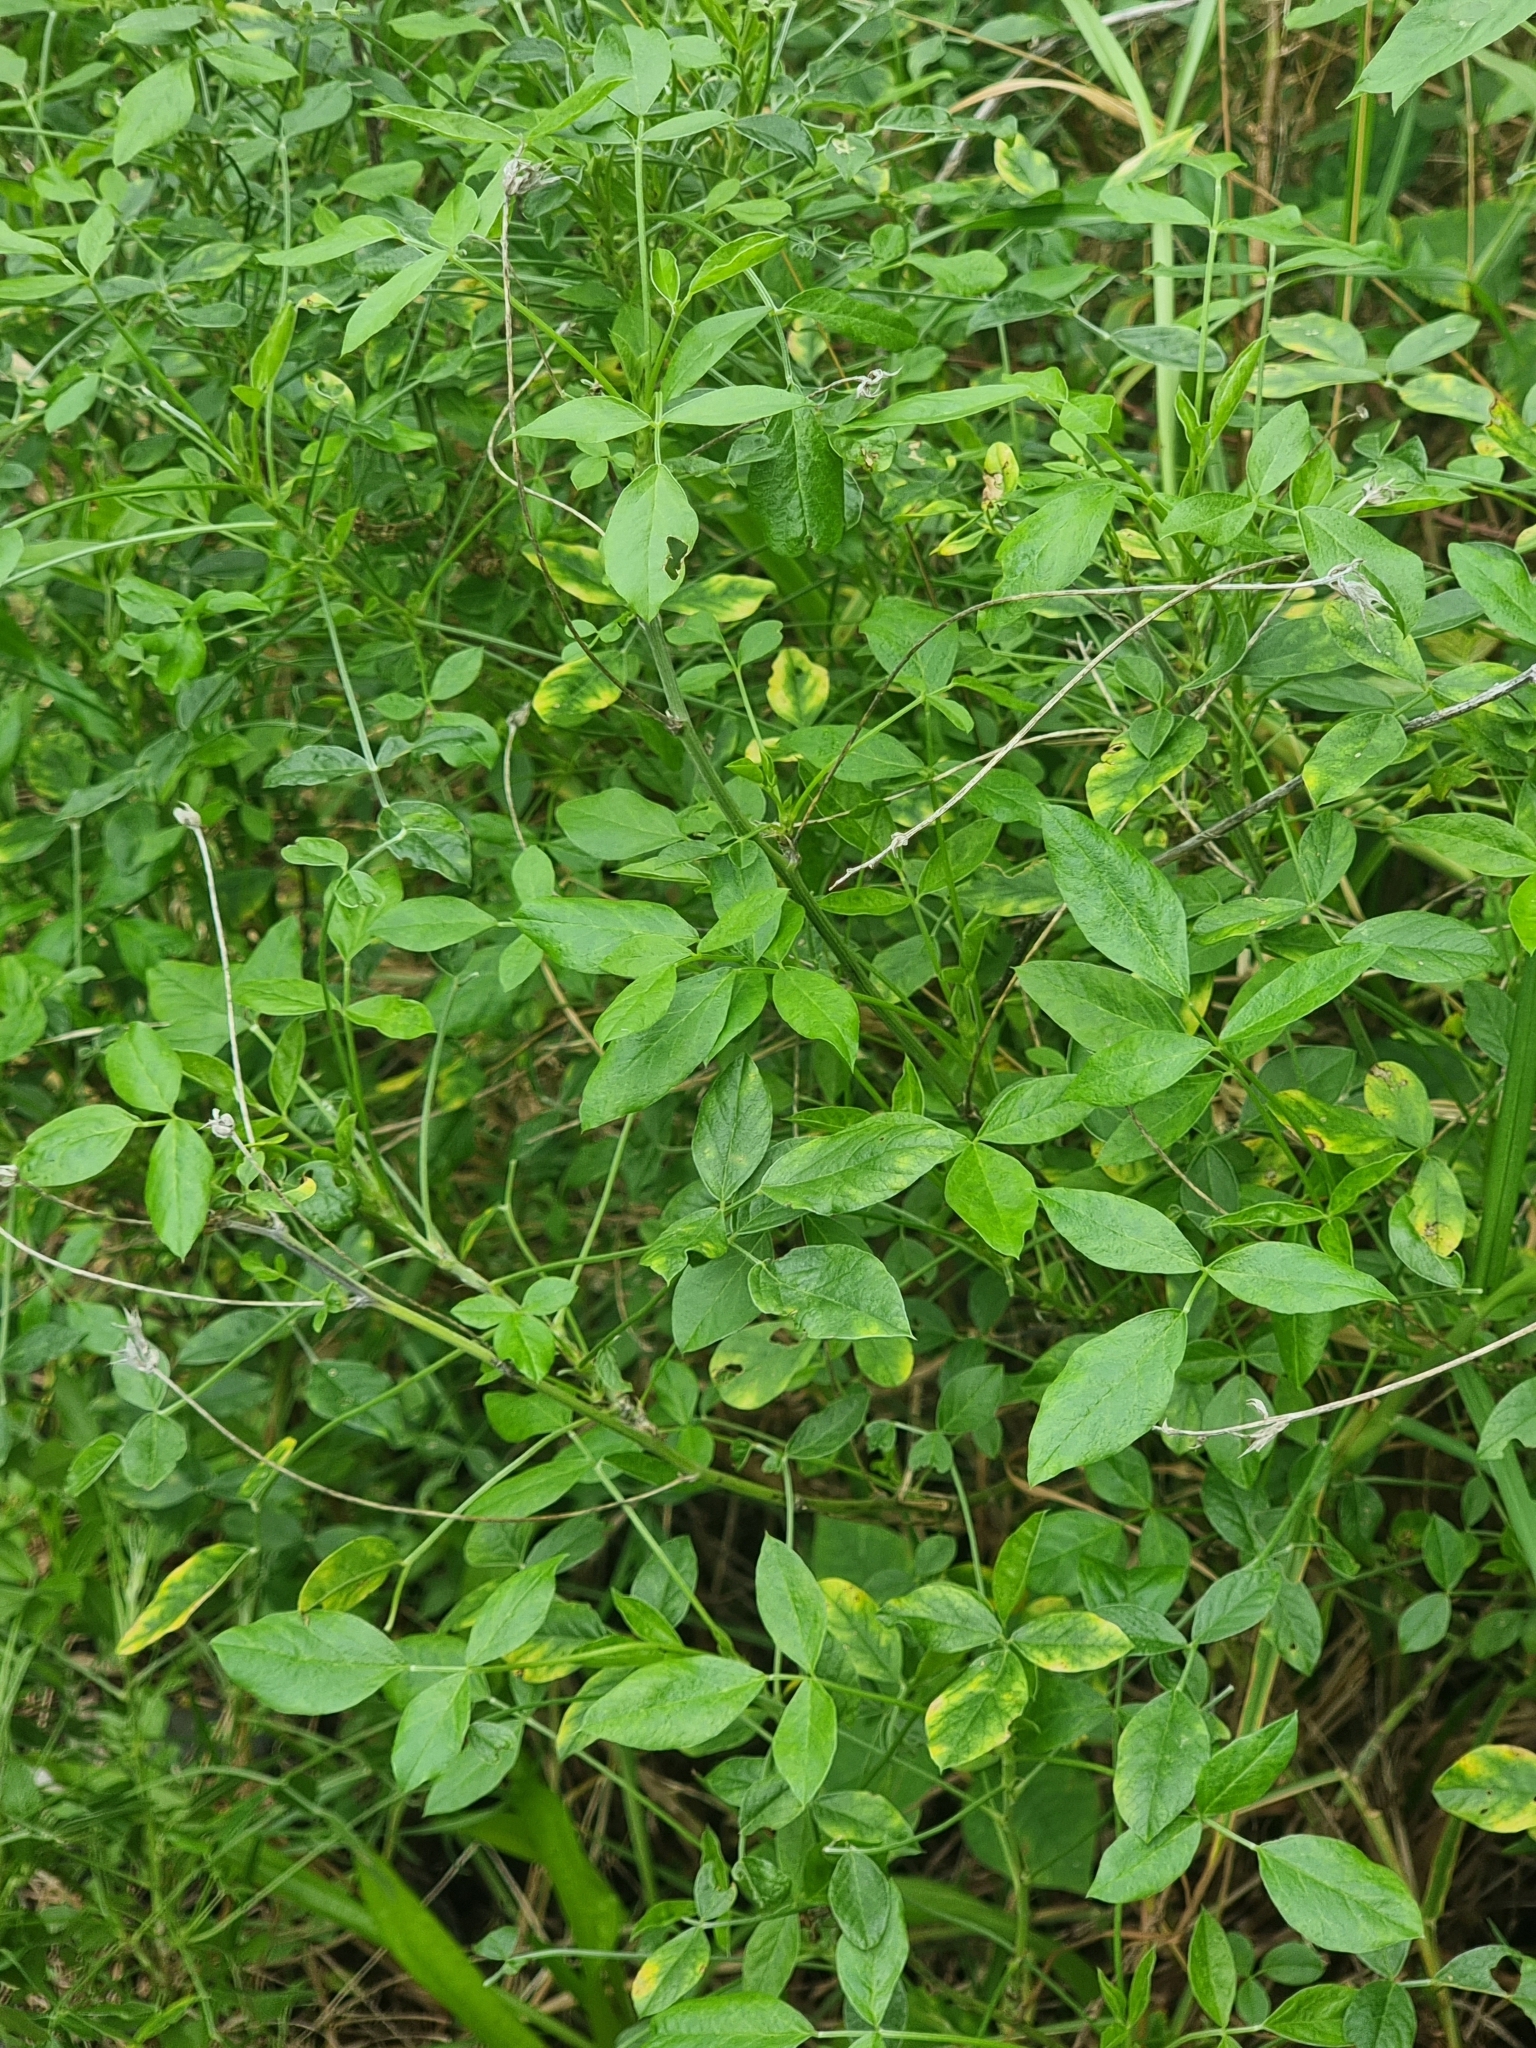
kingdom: Plantae
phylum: Tracheophyta
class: Magnoliopsida
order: Fabales
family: Fabaceae
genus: Bituminaria
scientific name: Bituminaria bituminosa
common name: Arabian pea
